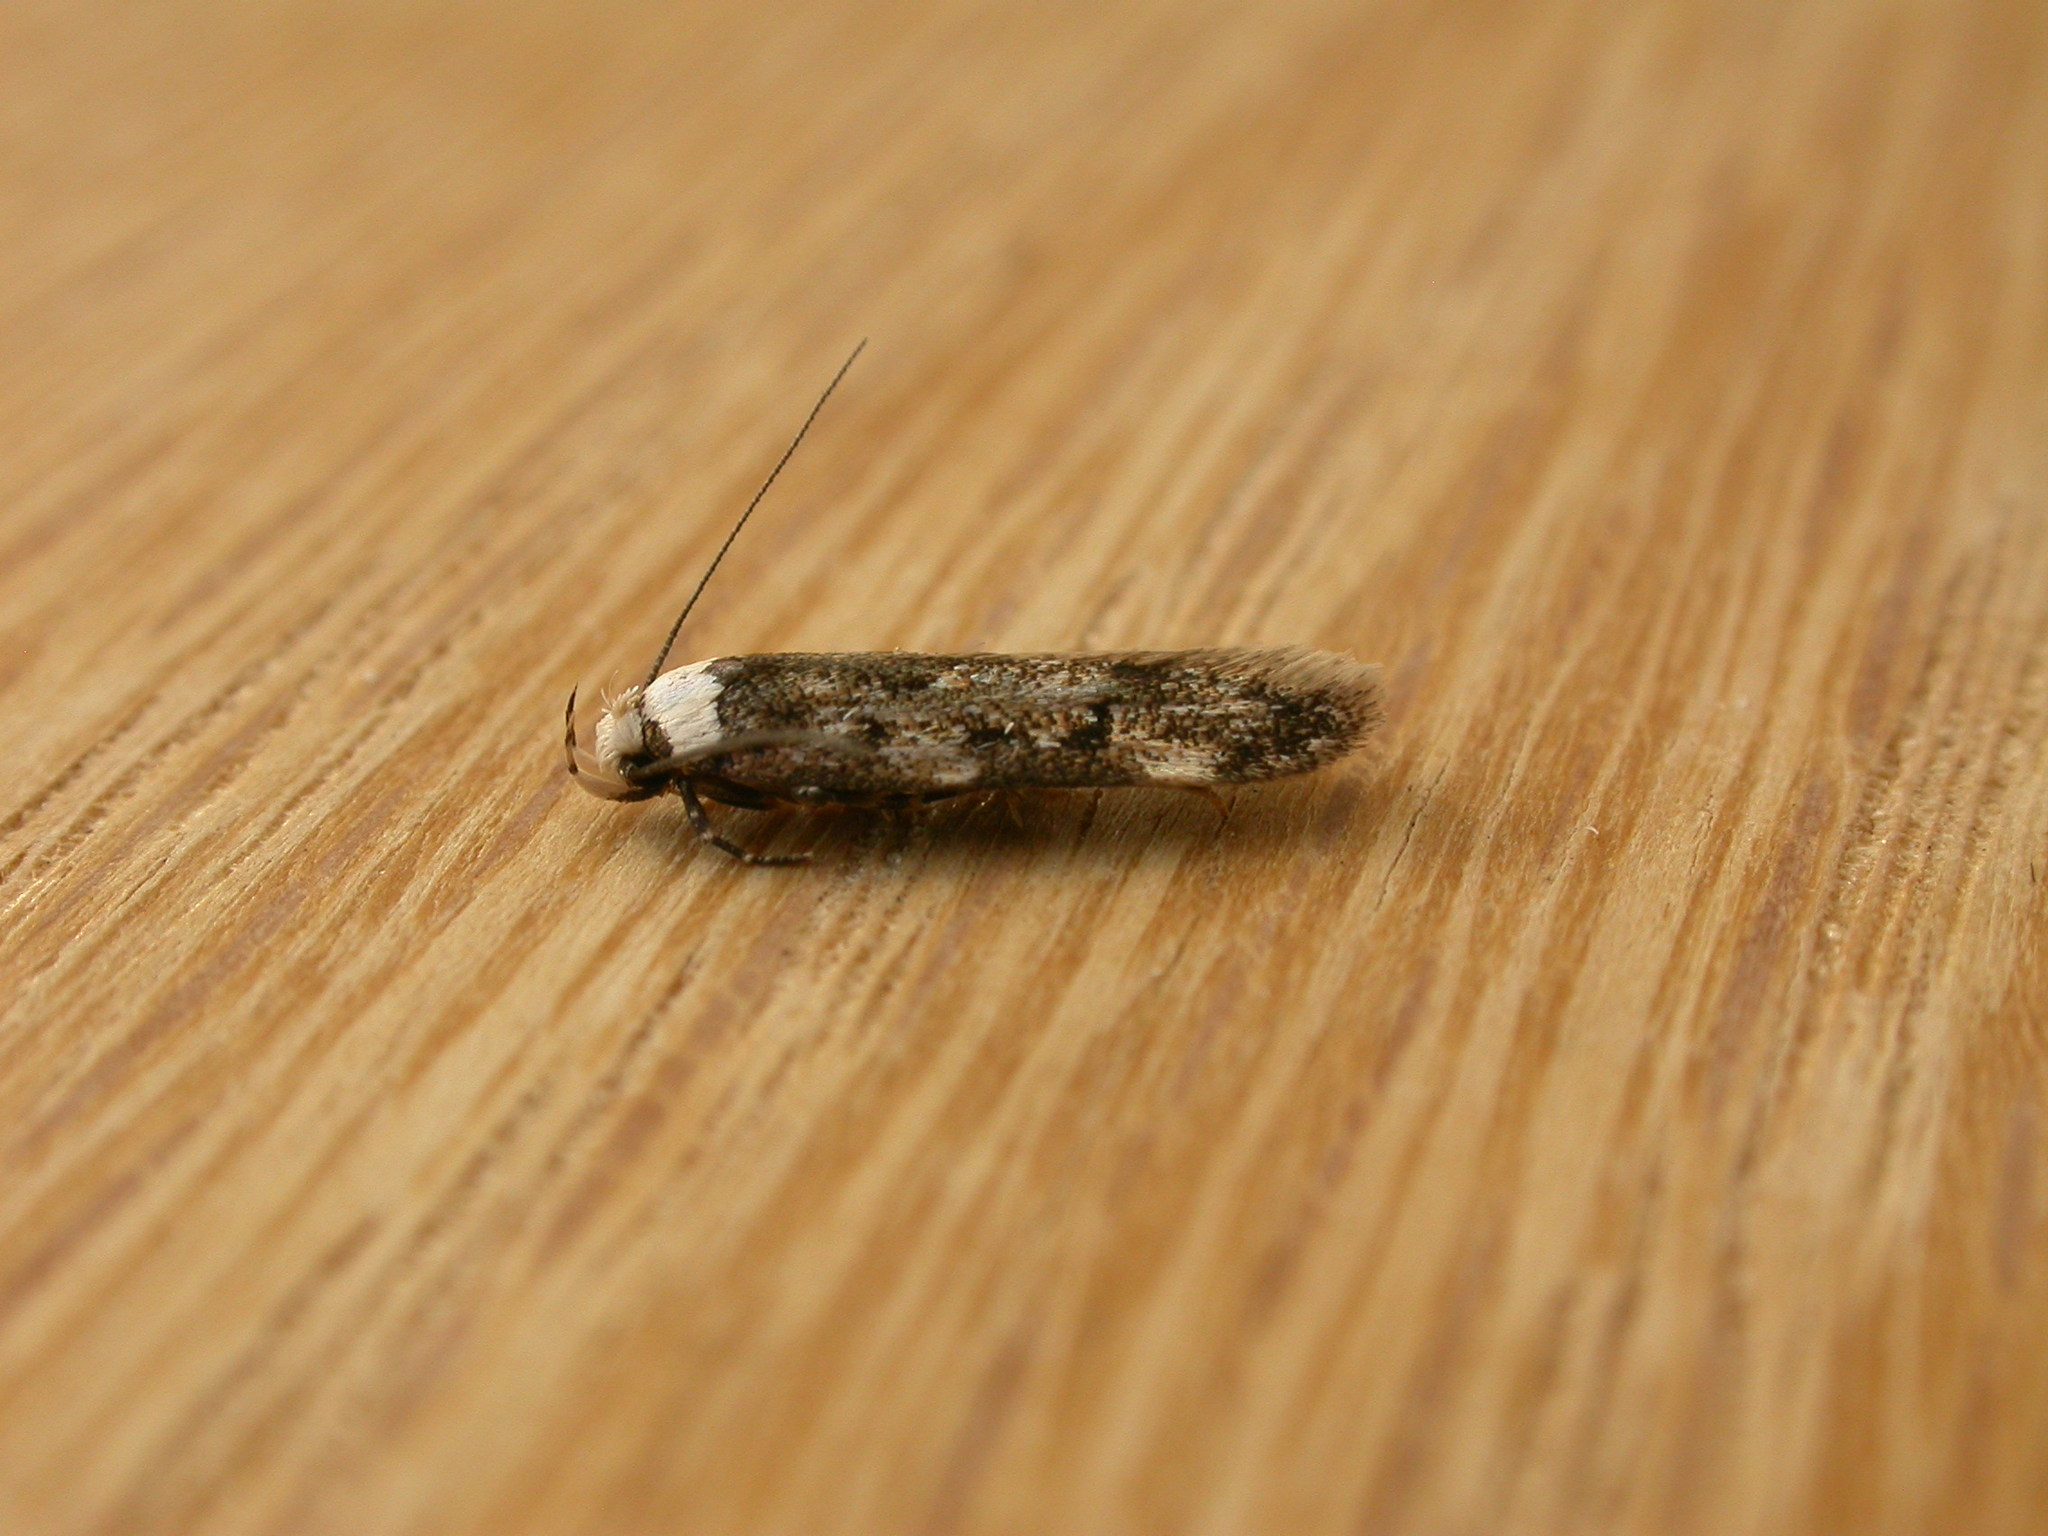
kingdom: Animalia
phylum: Arthropoda
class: Insecta
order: Lepidoptera
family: Oecophoridae
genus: Endrosis
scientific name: Endrosis sarcitrella
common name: White-shouldered house moth
